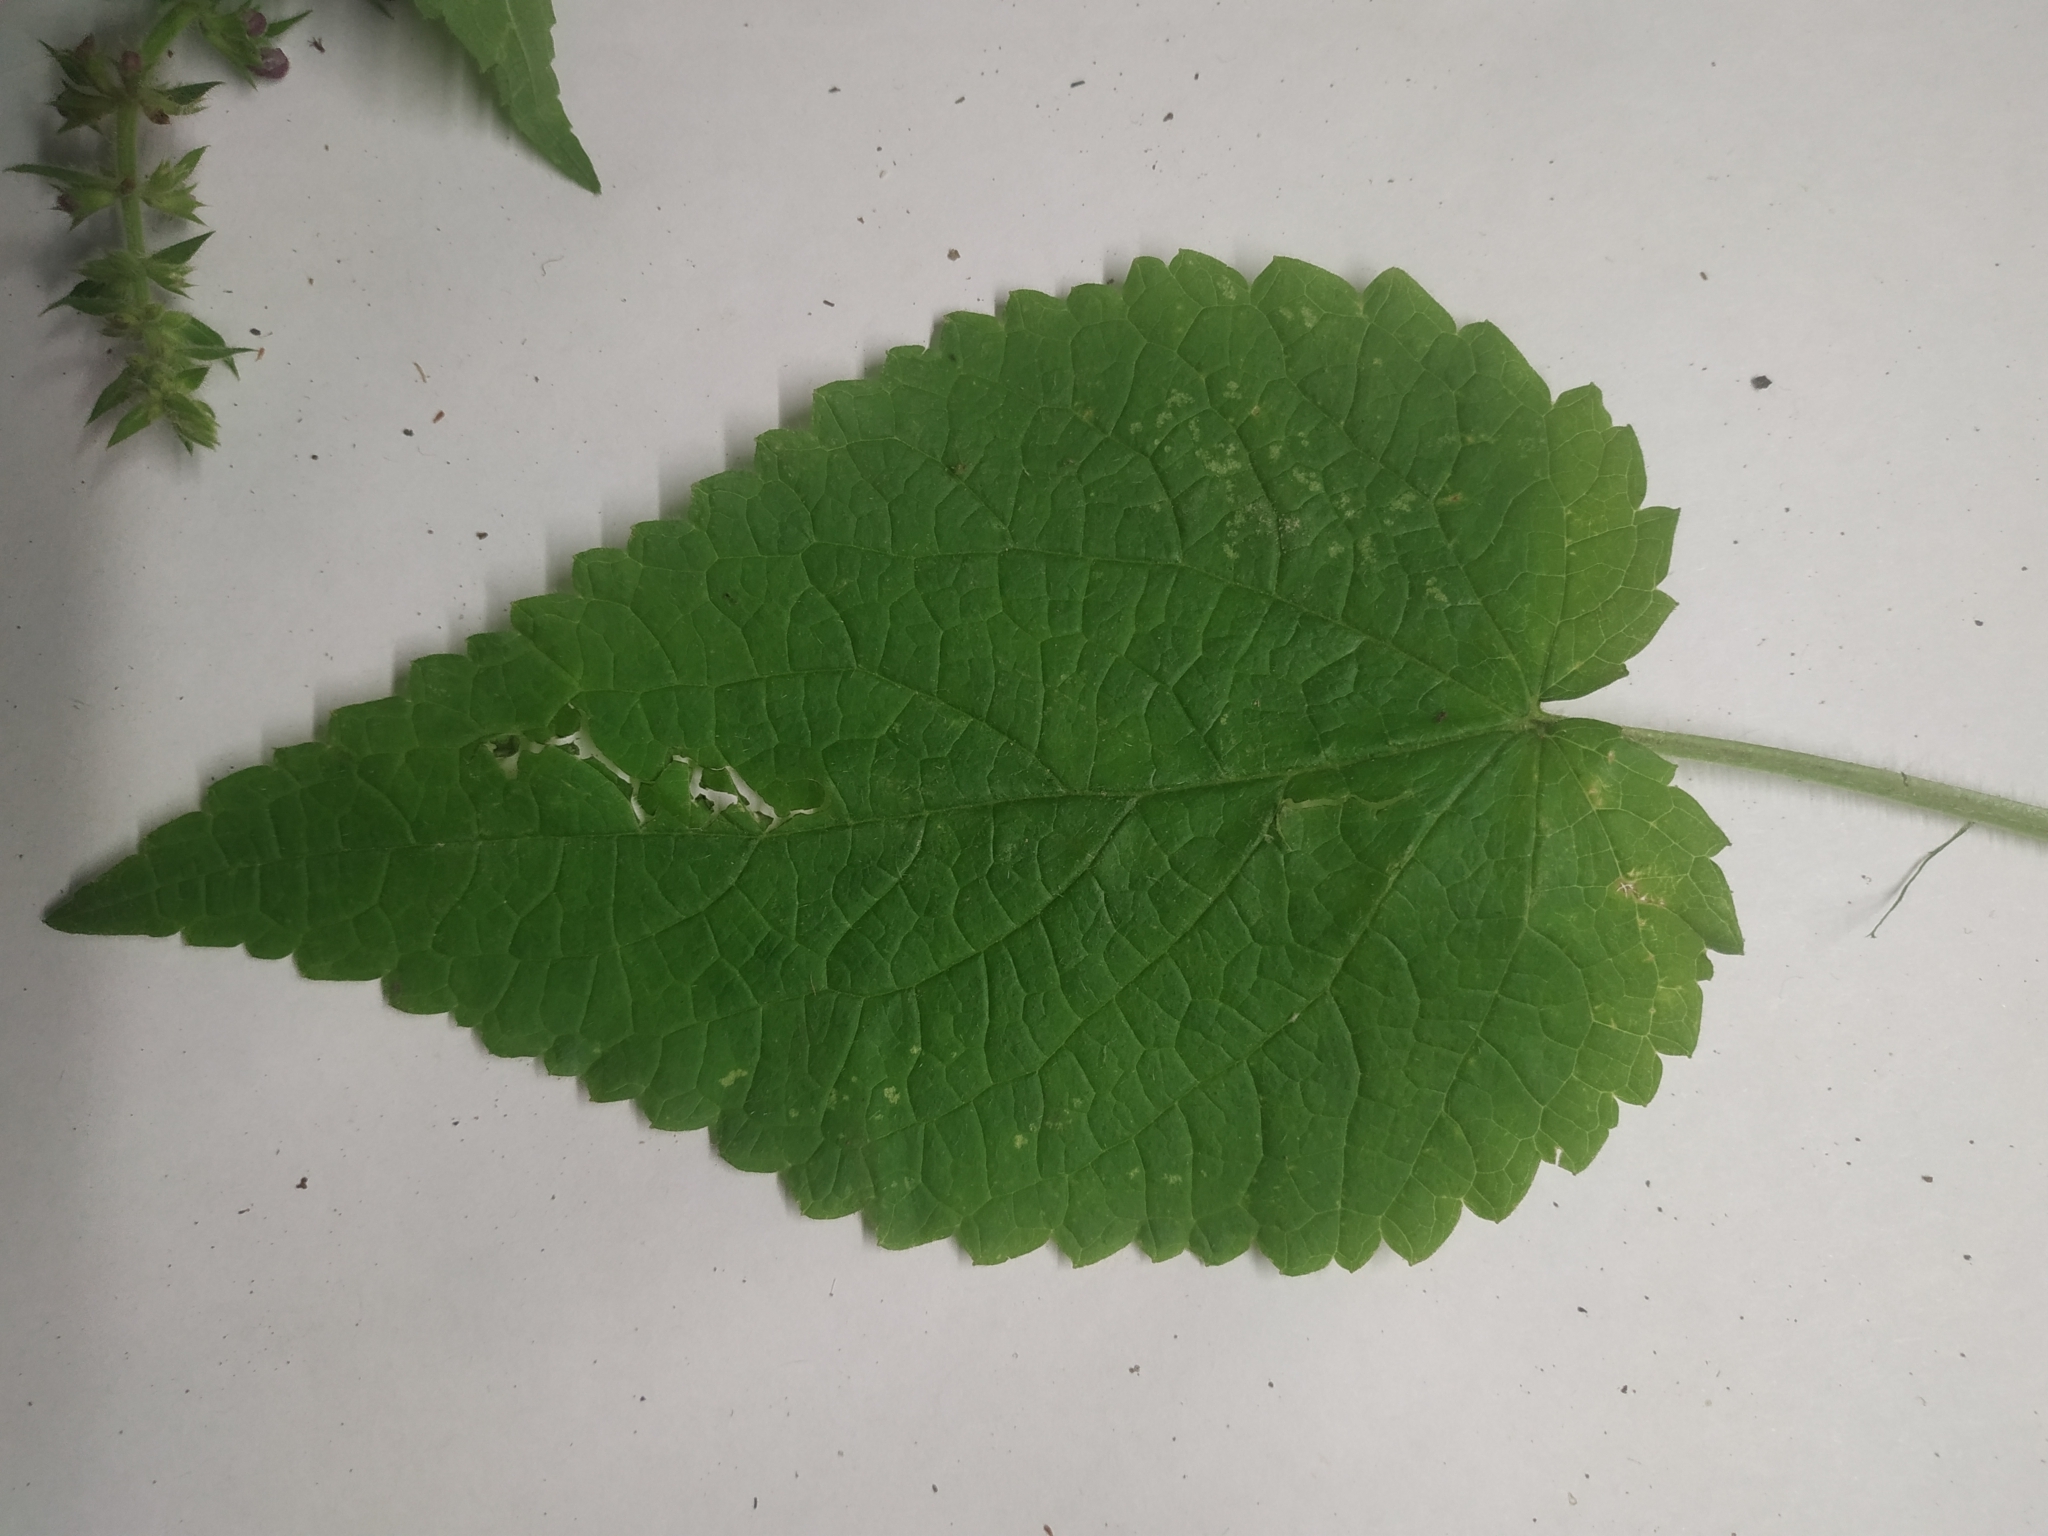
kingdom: Plantae
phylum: Tracheophyta
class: Magnoliopsida
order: Lamiales
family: Lamiaceae
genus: Stachys
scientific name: Stachys sylvatica
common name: Hedge woundwort
